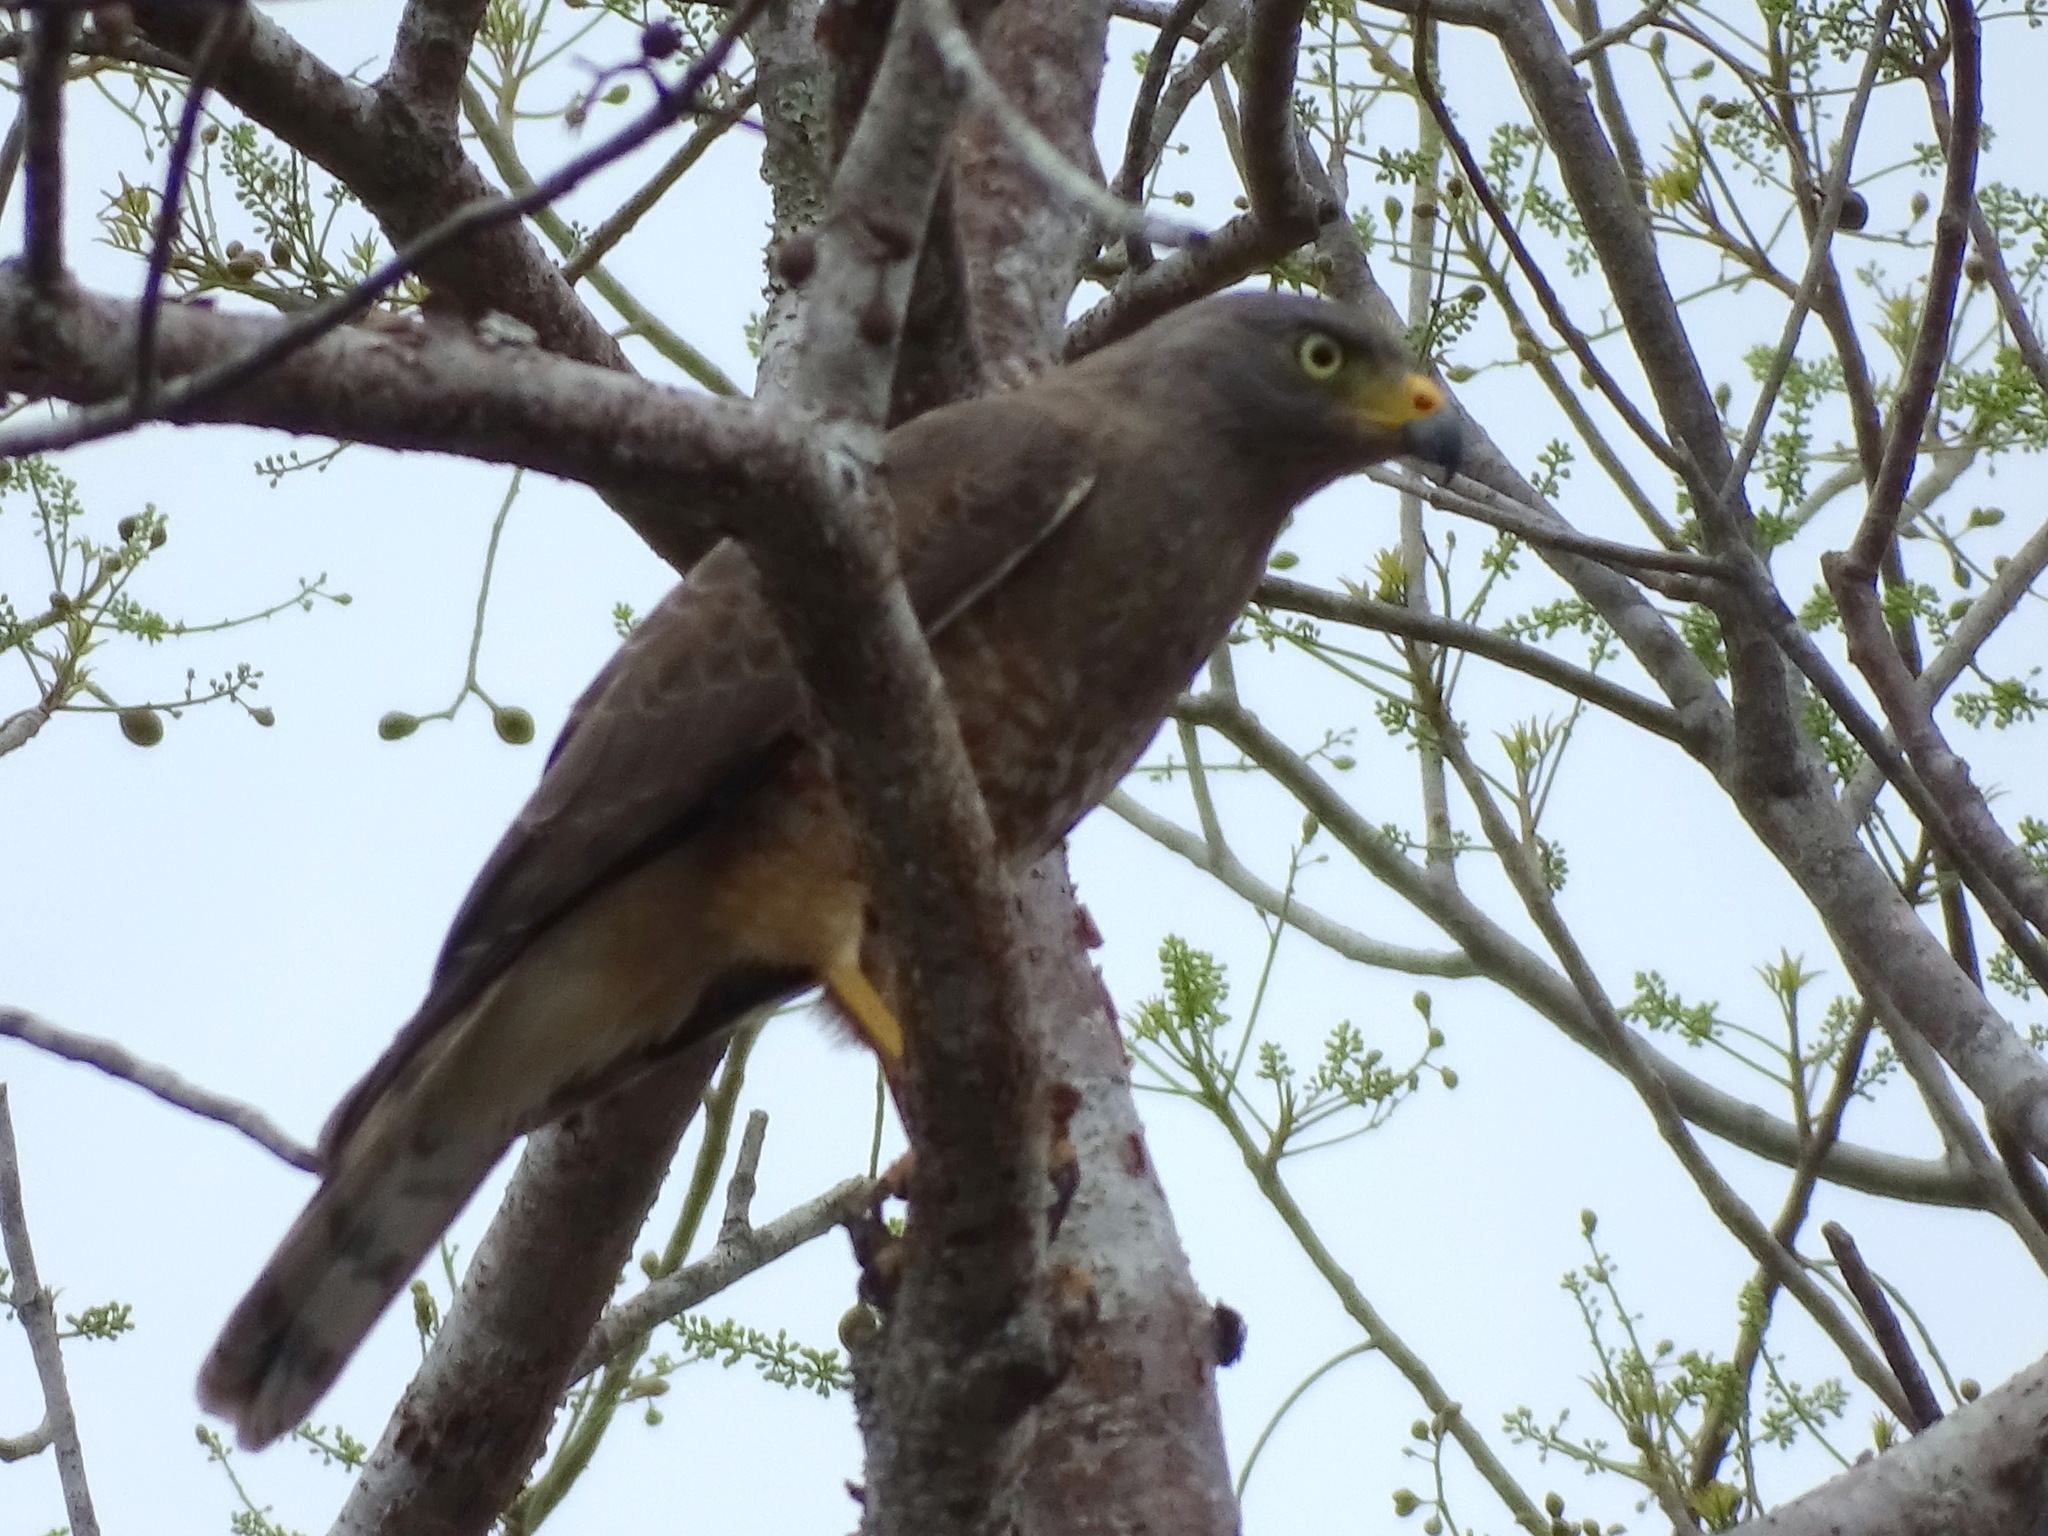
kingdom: Animalia
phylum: Chordata
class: Aves
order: Accipitriformes
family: Accipitridae
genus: Rupornis
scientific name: Rupornis magnirostris
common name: Roadside hawk
